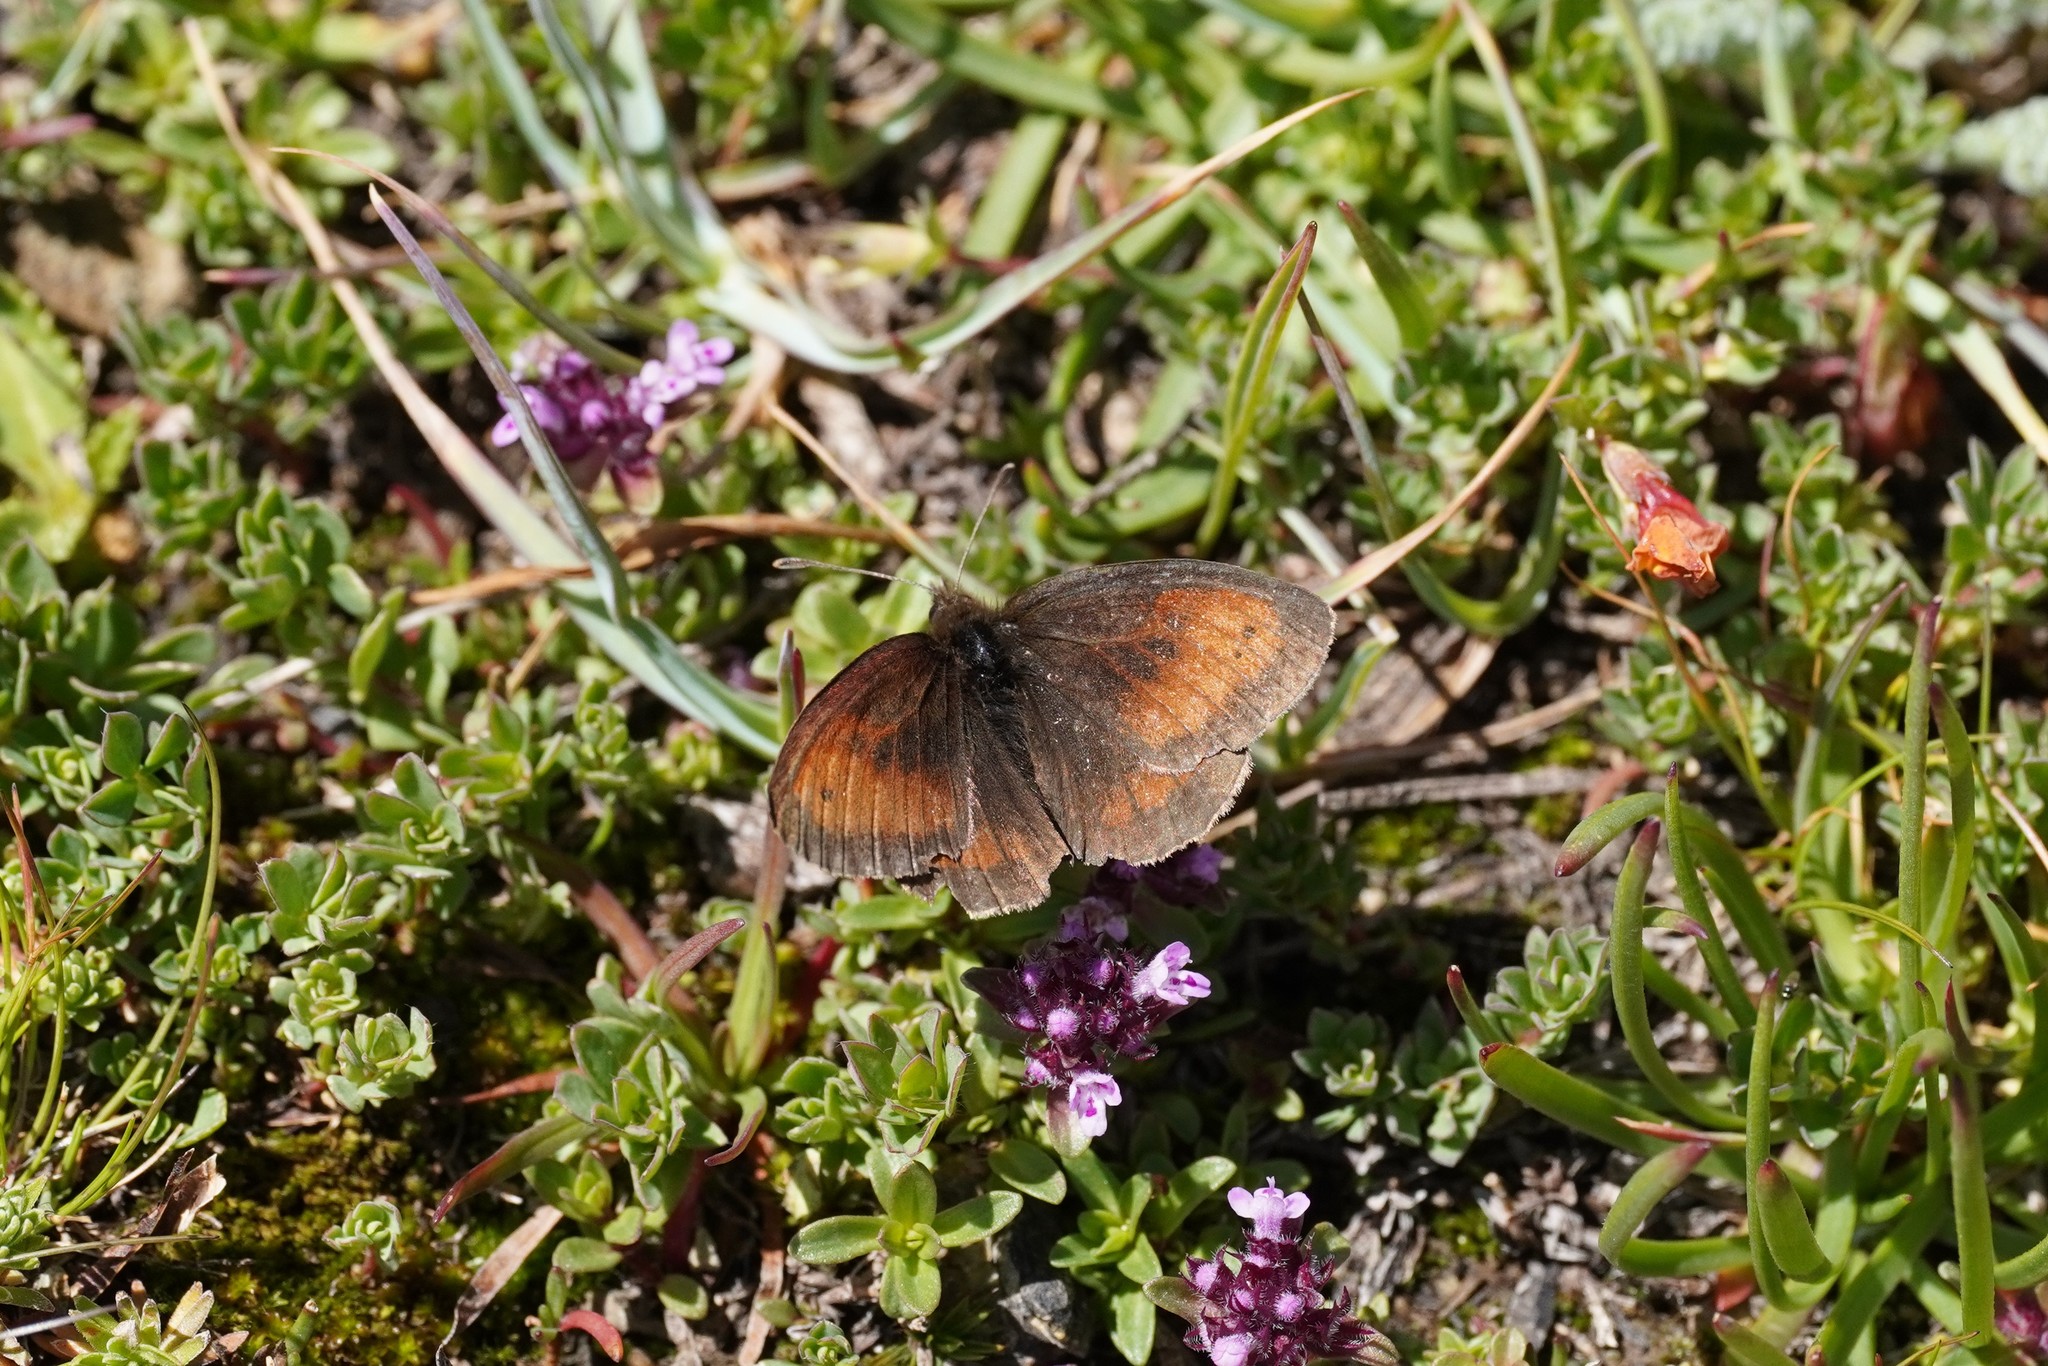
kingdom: Animalia
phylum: Arthropoda
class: Insecta
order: Lepidoptera
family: Nymphalidae
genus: Erebia
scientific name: Erebia mnestra
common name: Mnestra’s ringlet
